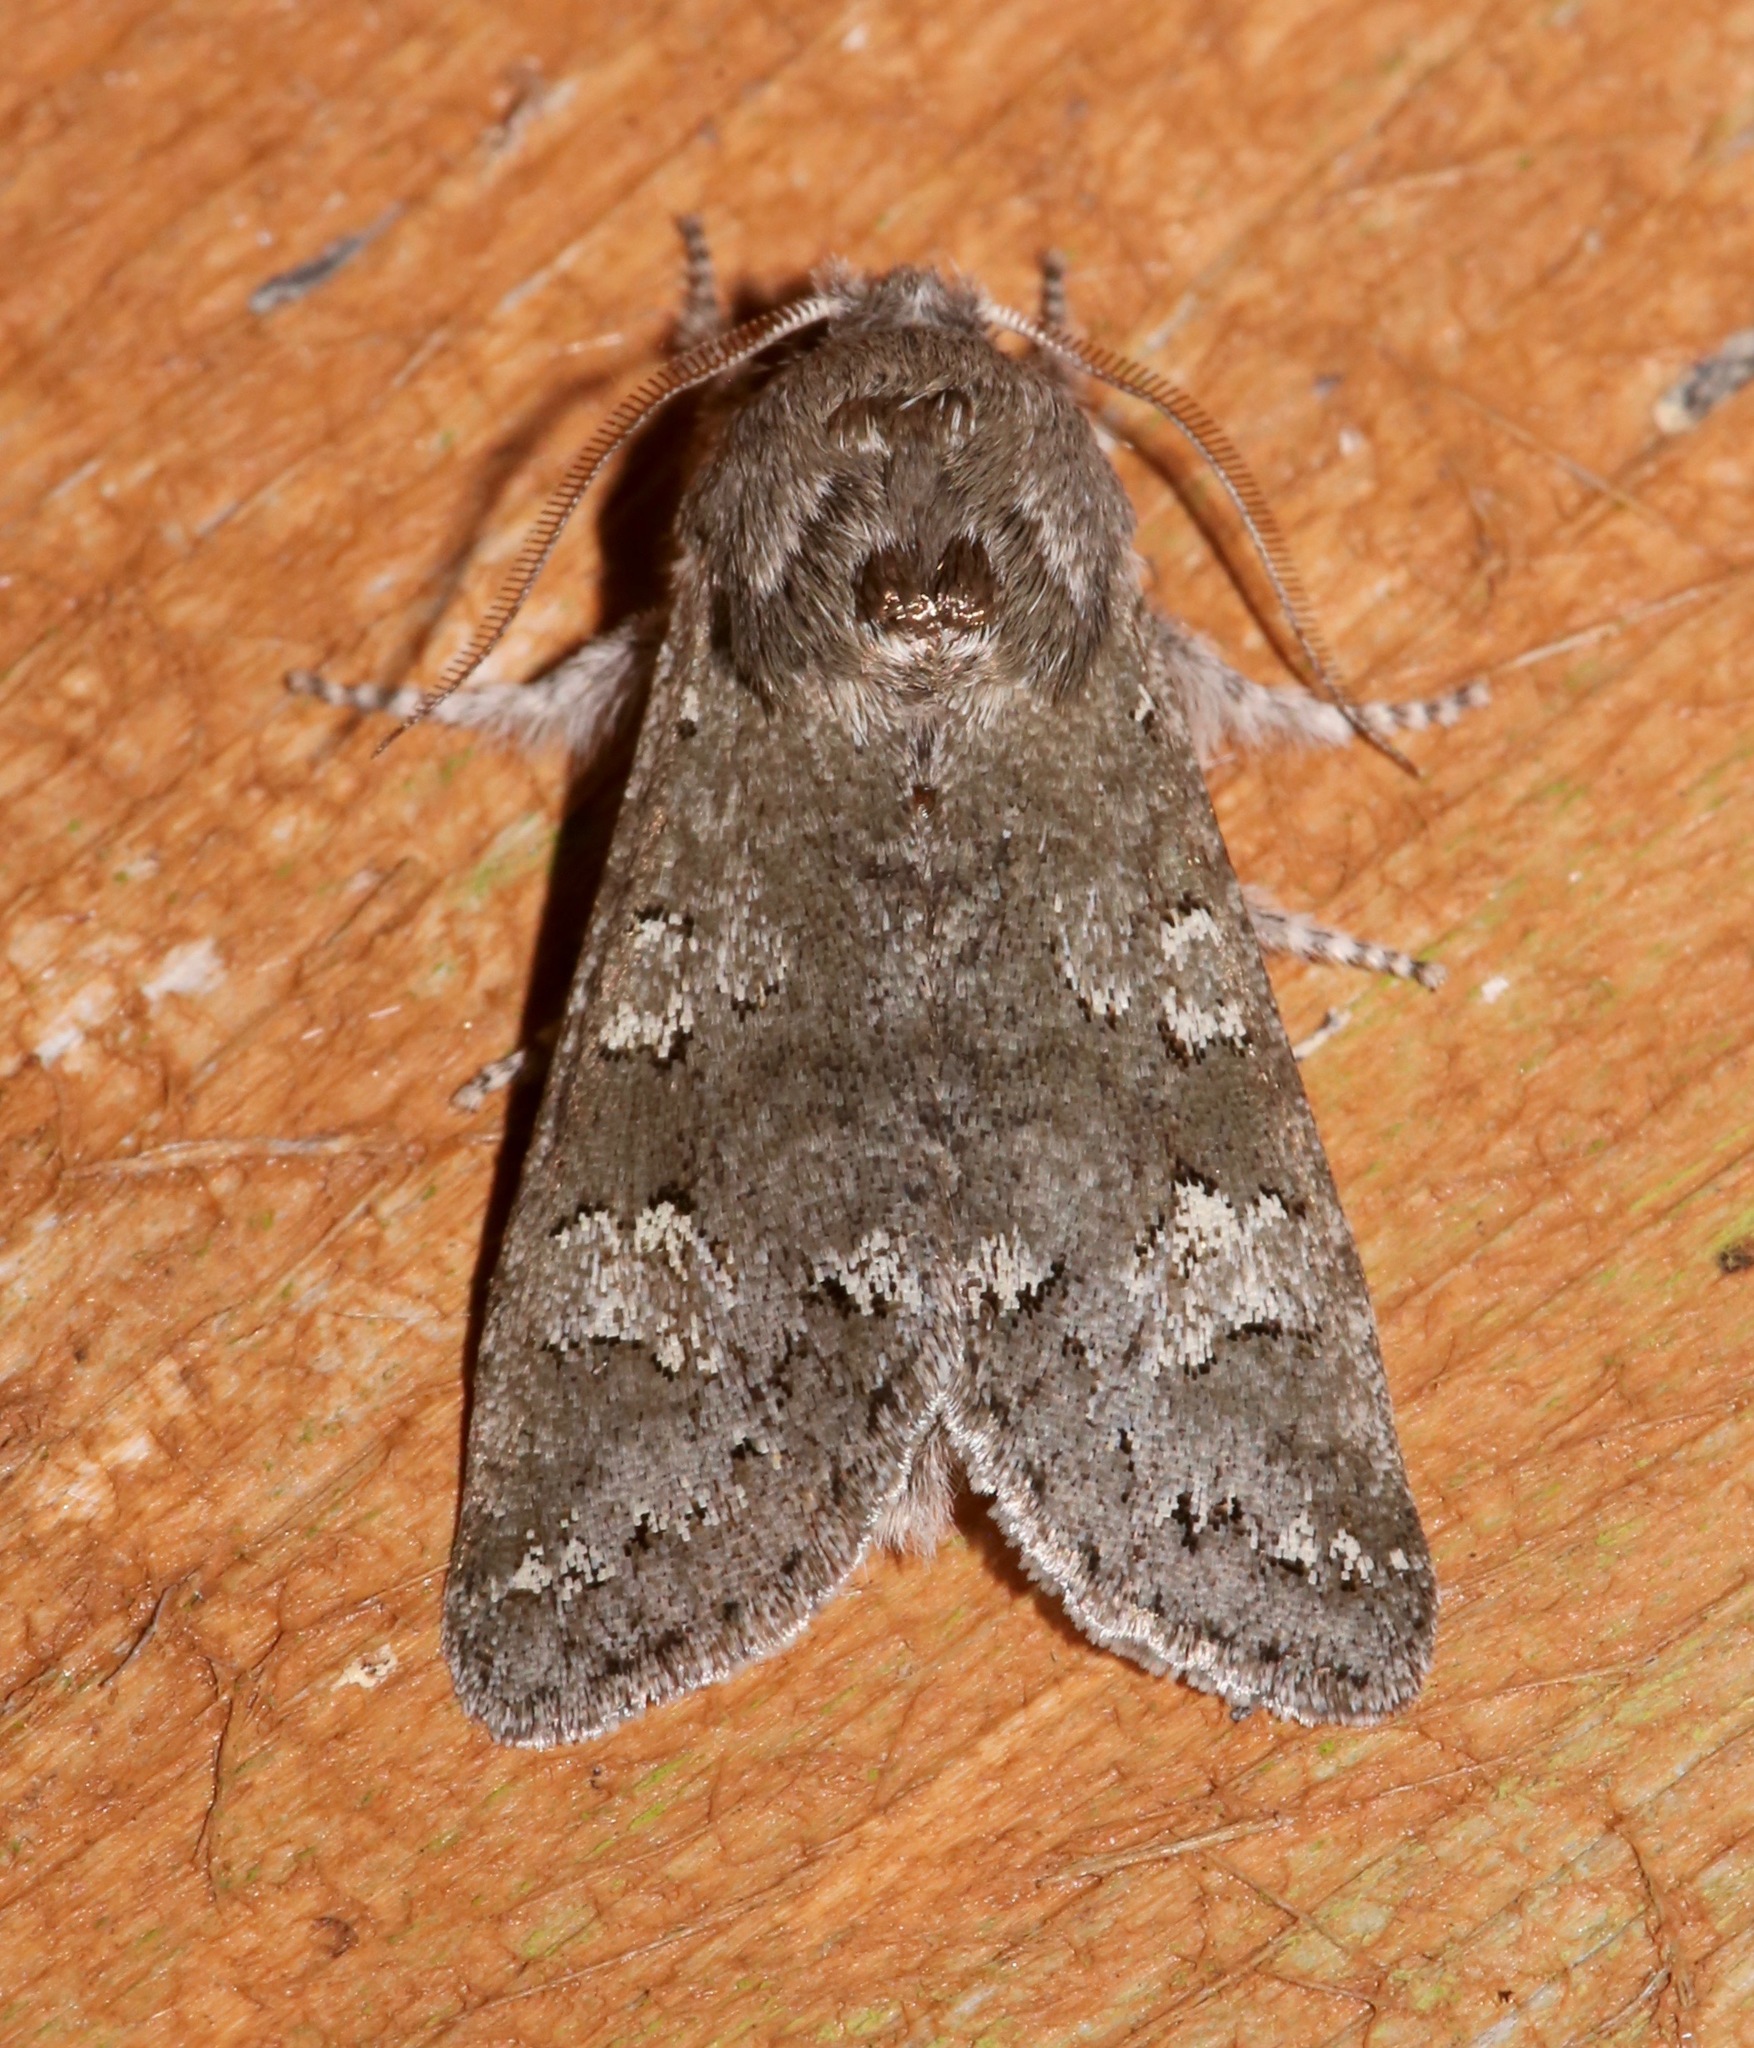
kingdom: Animalia
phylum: Arthropoda
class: Insecta
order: Lepidoptera
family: Noctuidae
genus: Psaphida
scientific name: Psaphida rolandi
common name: Roland's sallow
